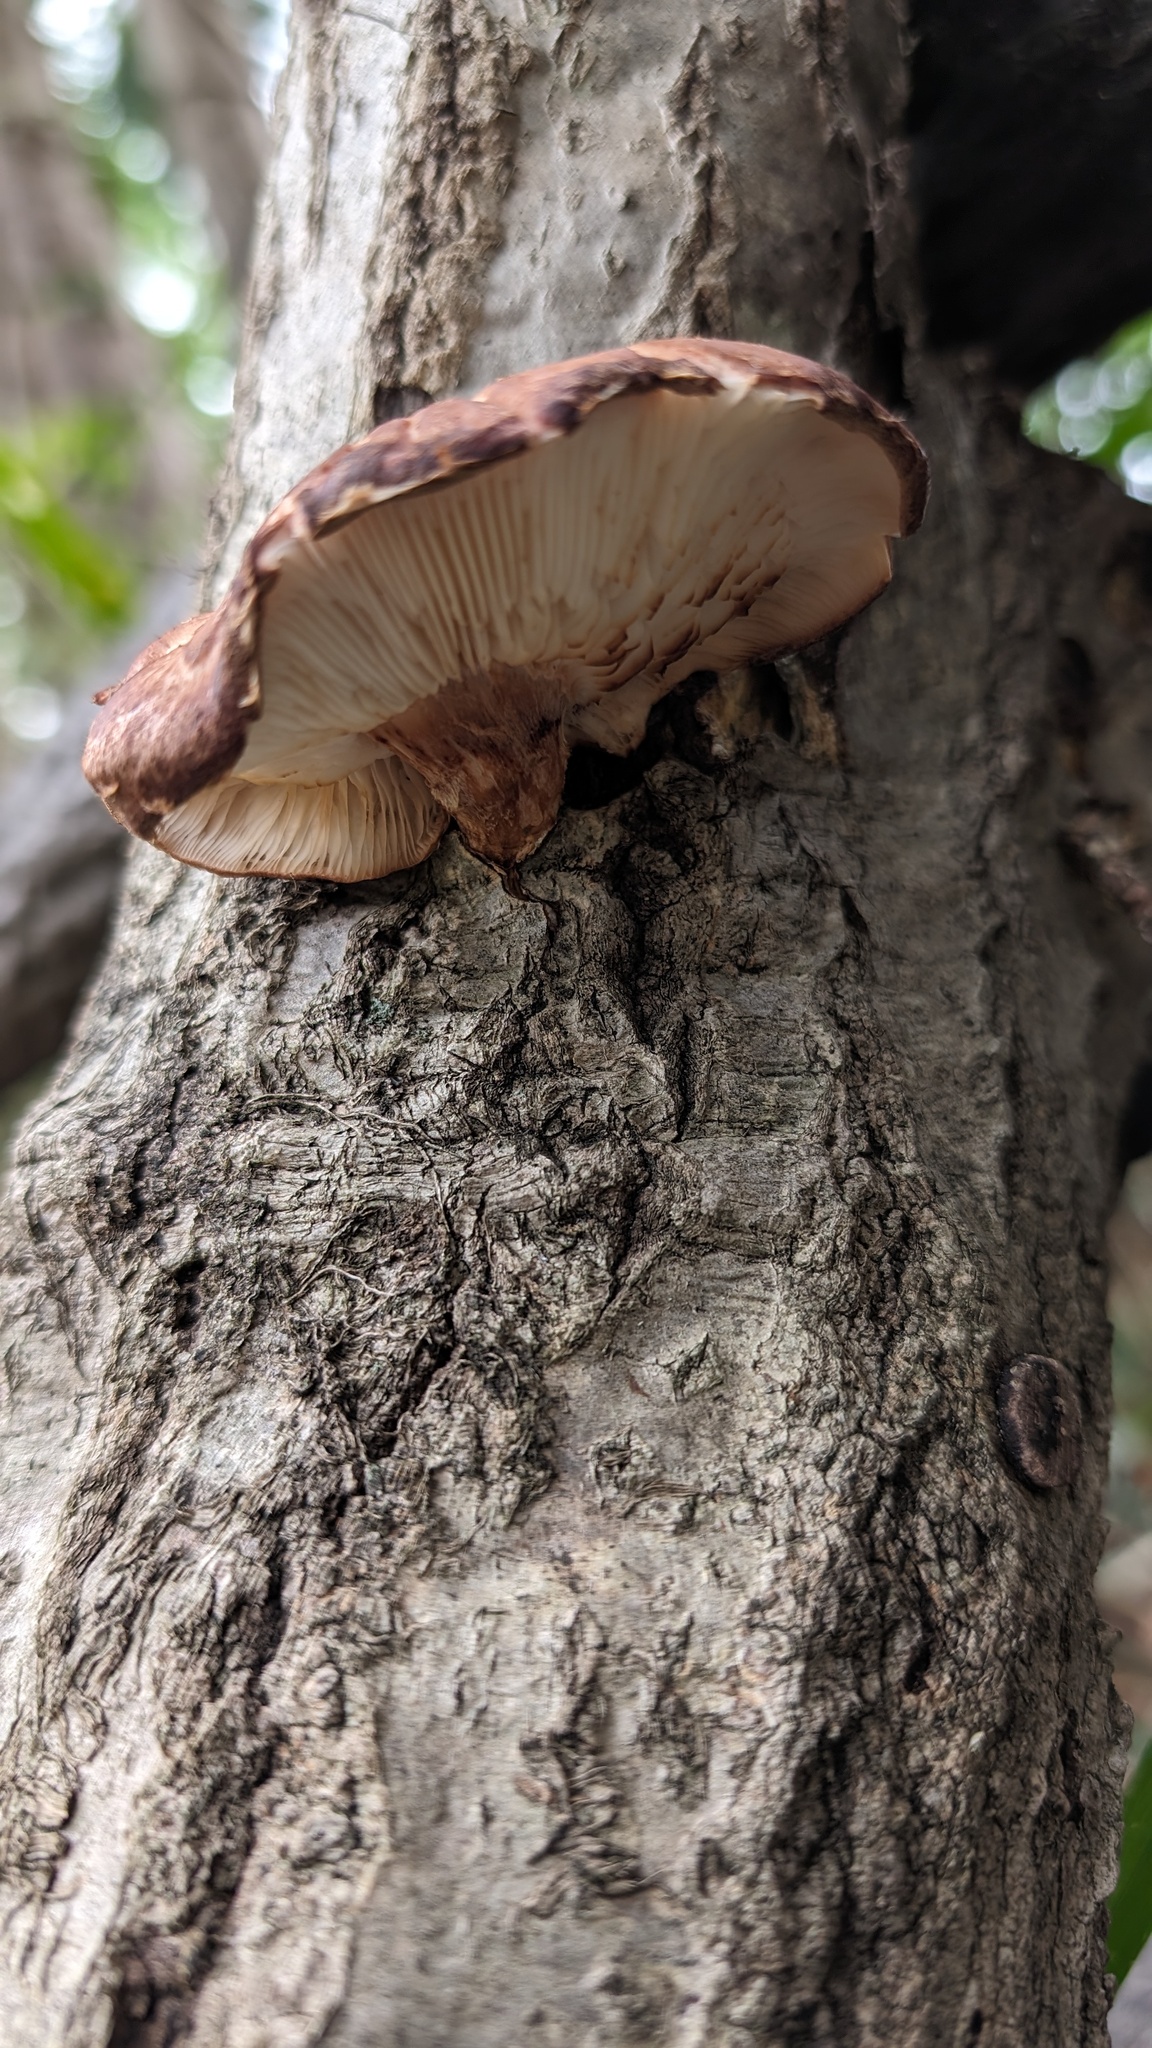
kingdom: Fungi
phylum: Basidiomycota
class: Agaricomycetes
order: Agaricales
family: Omphalotaceae
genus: Lentinula
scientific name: Lentinula edodes
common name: Shiitake
